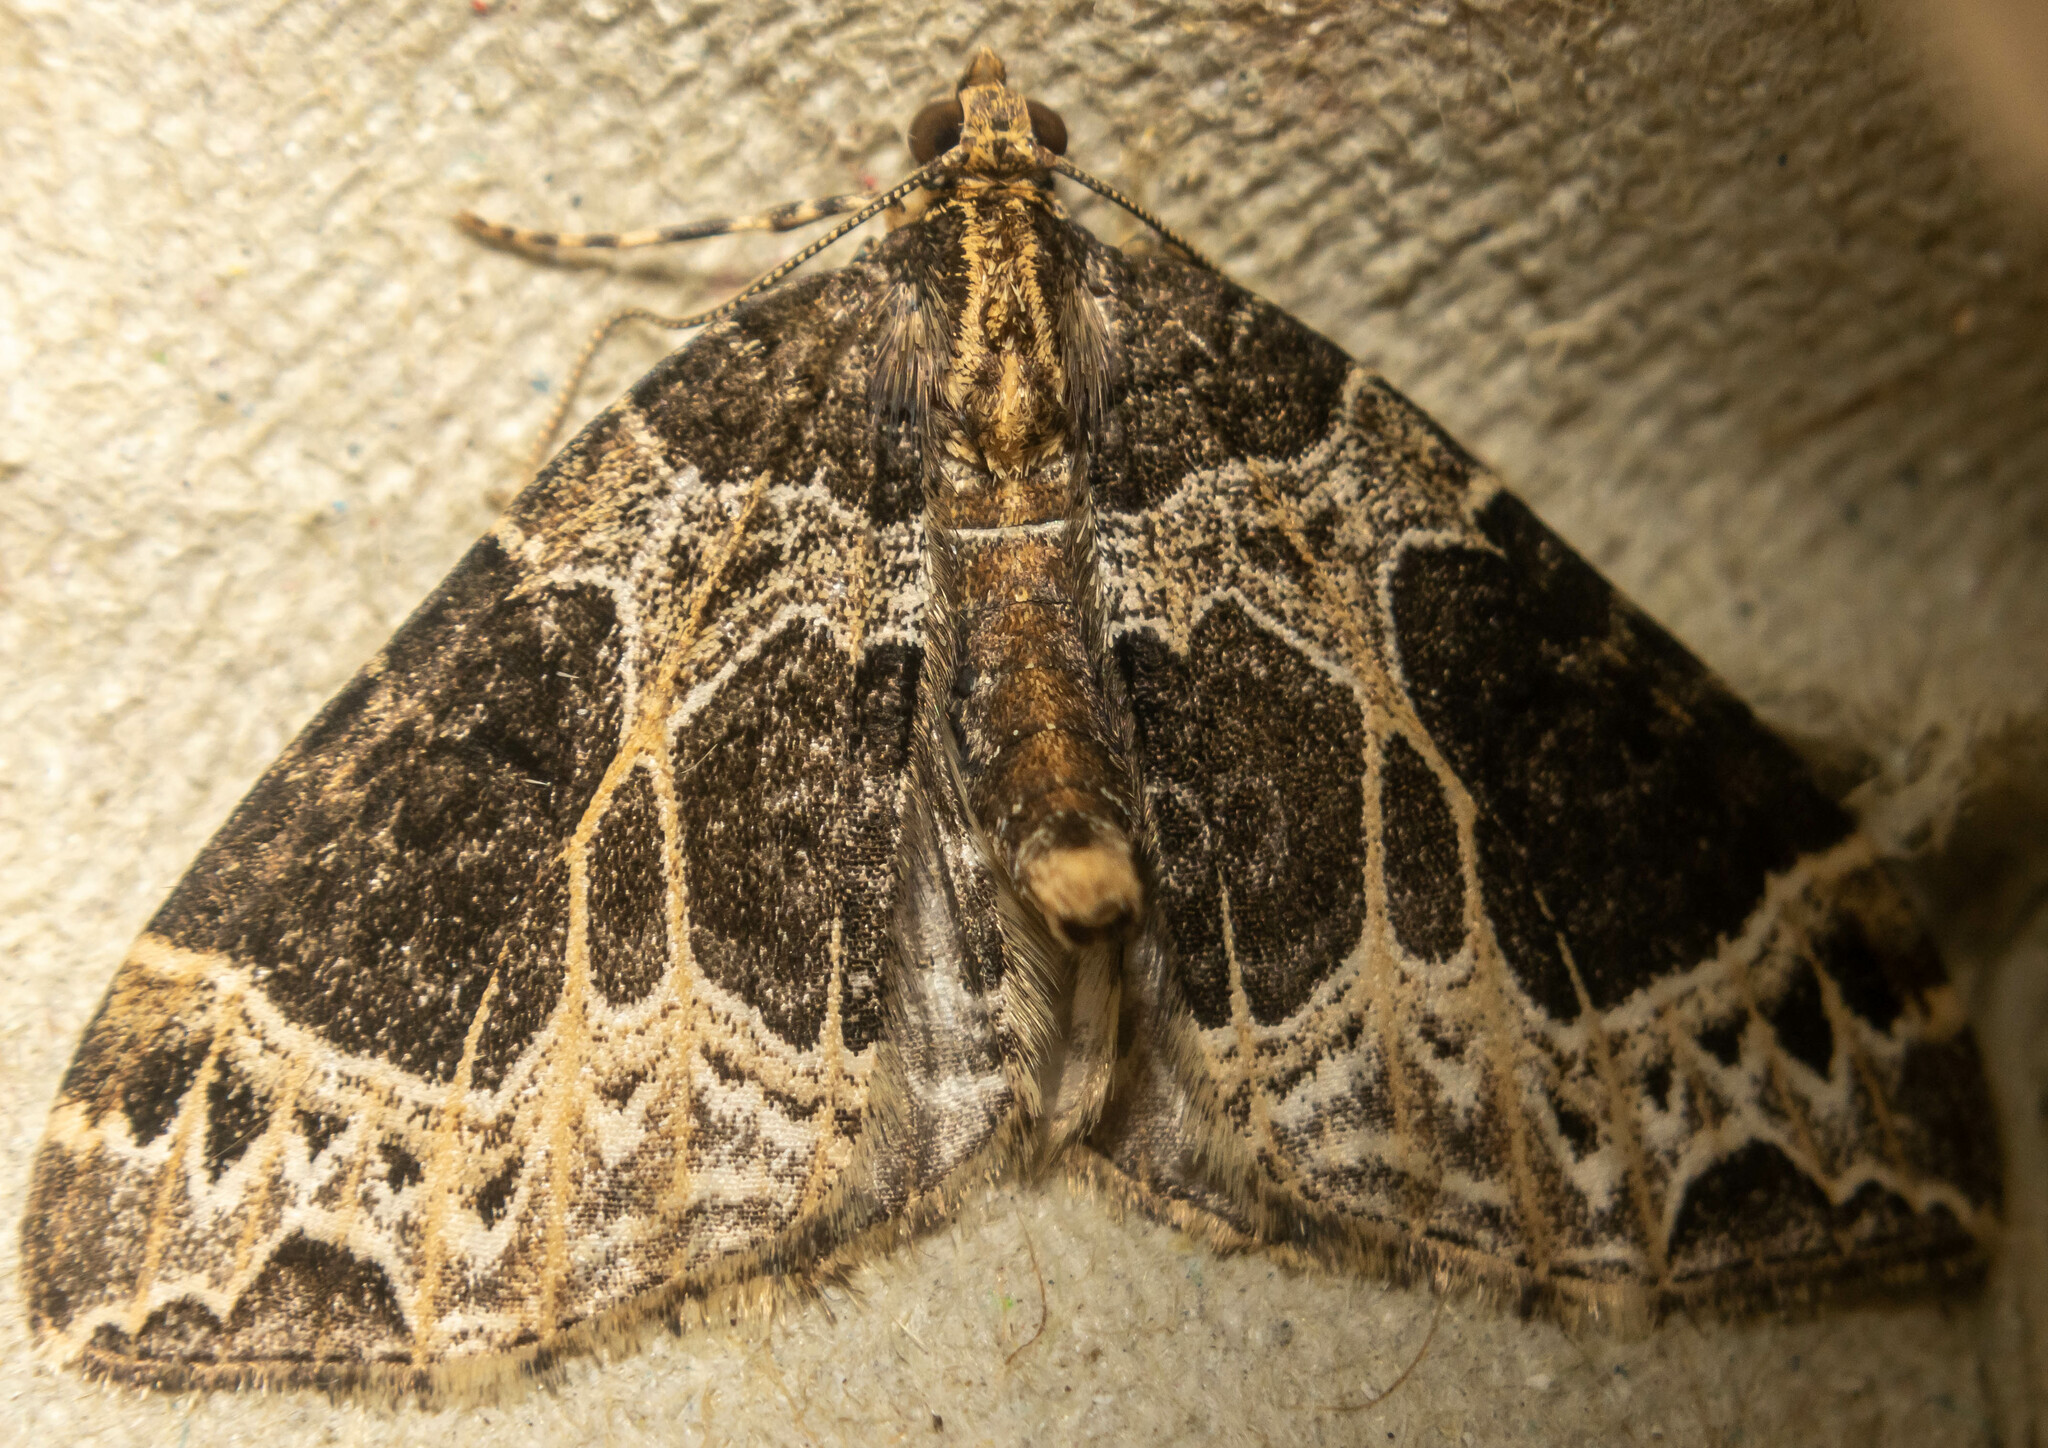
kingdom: Animalia
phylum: Arthropoda
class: Insecta
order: Lepidoptera
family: Geometridae
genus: Ecliptopera
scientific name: Ecliptopera silaceata
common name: Small phoenix
